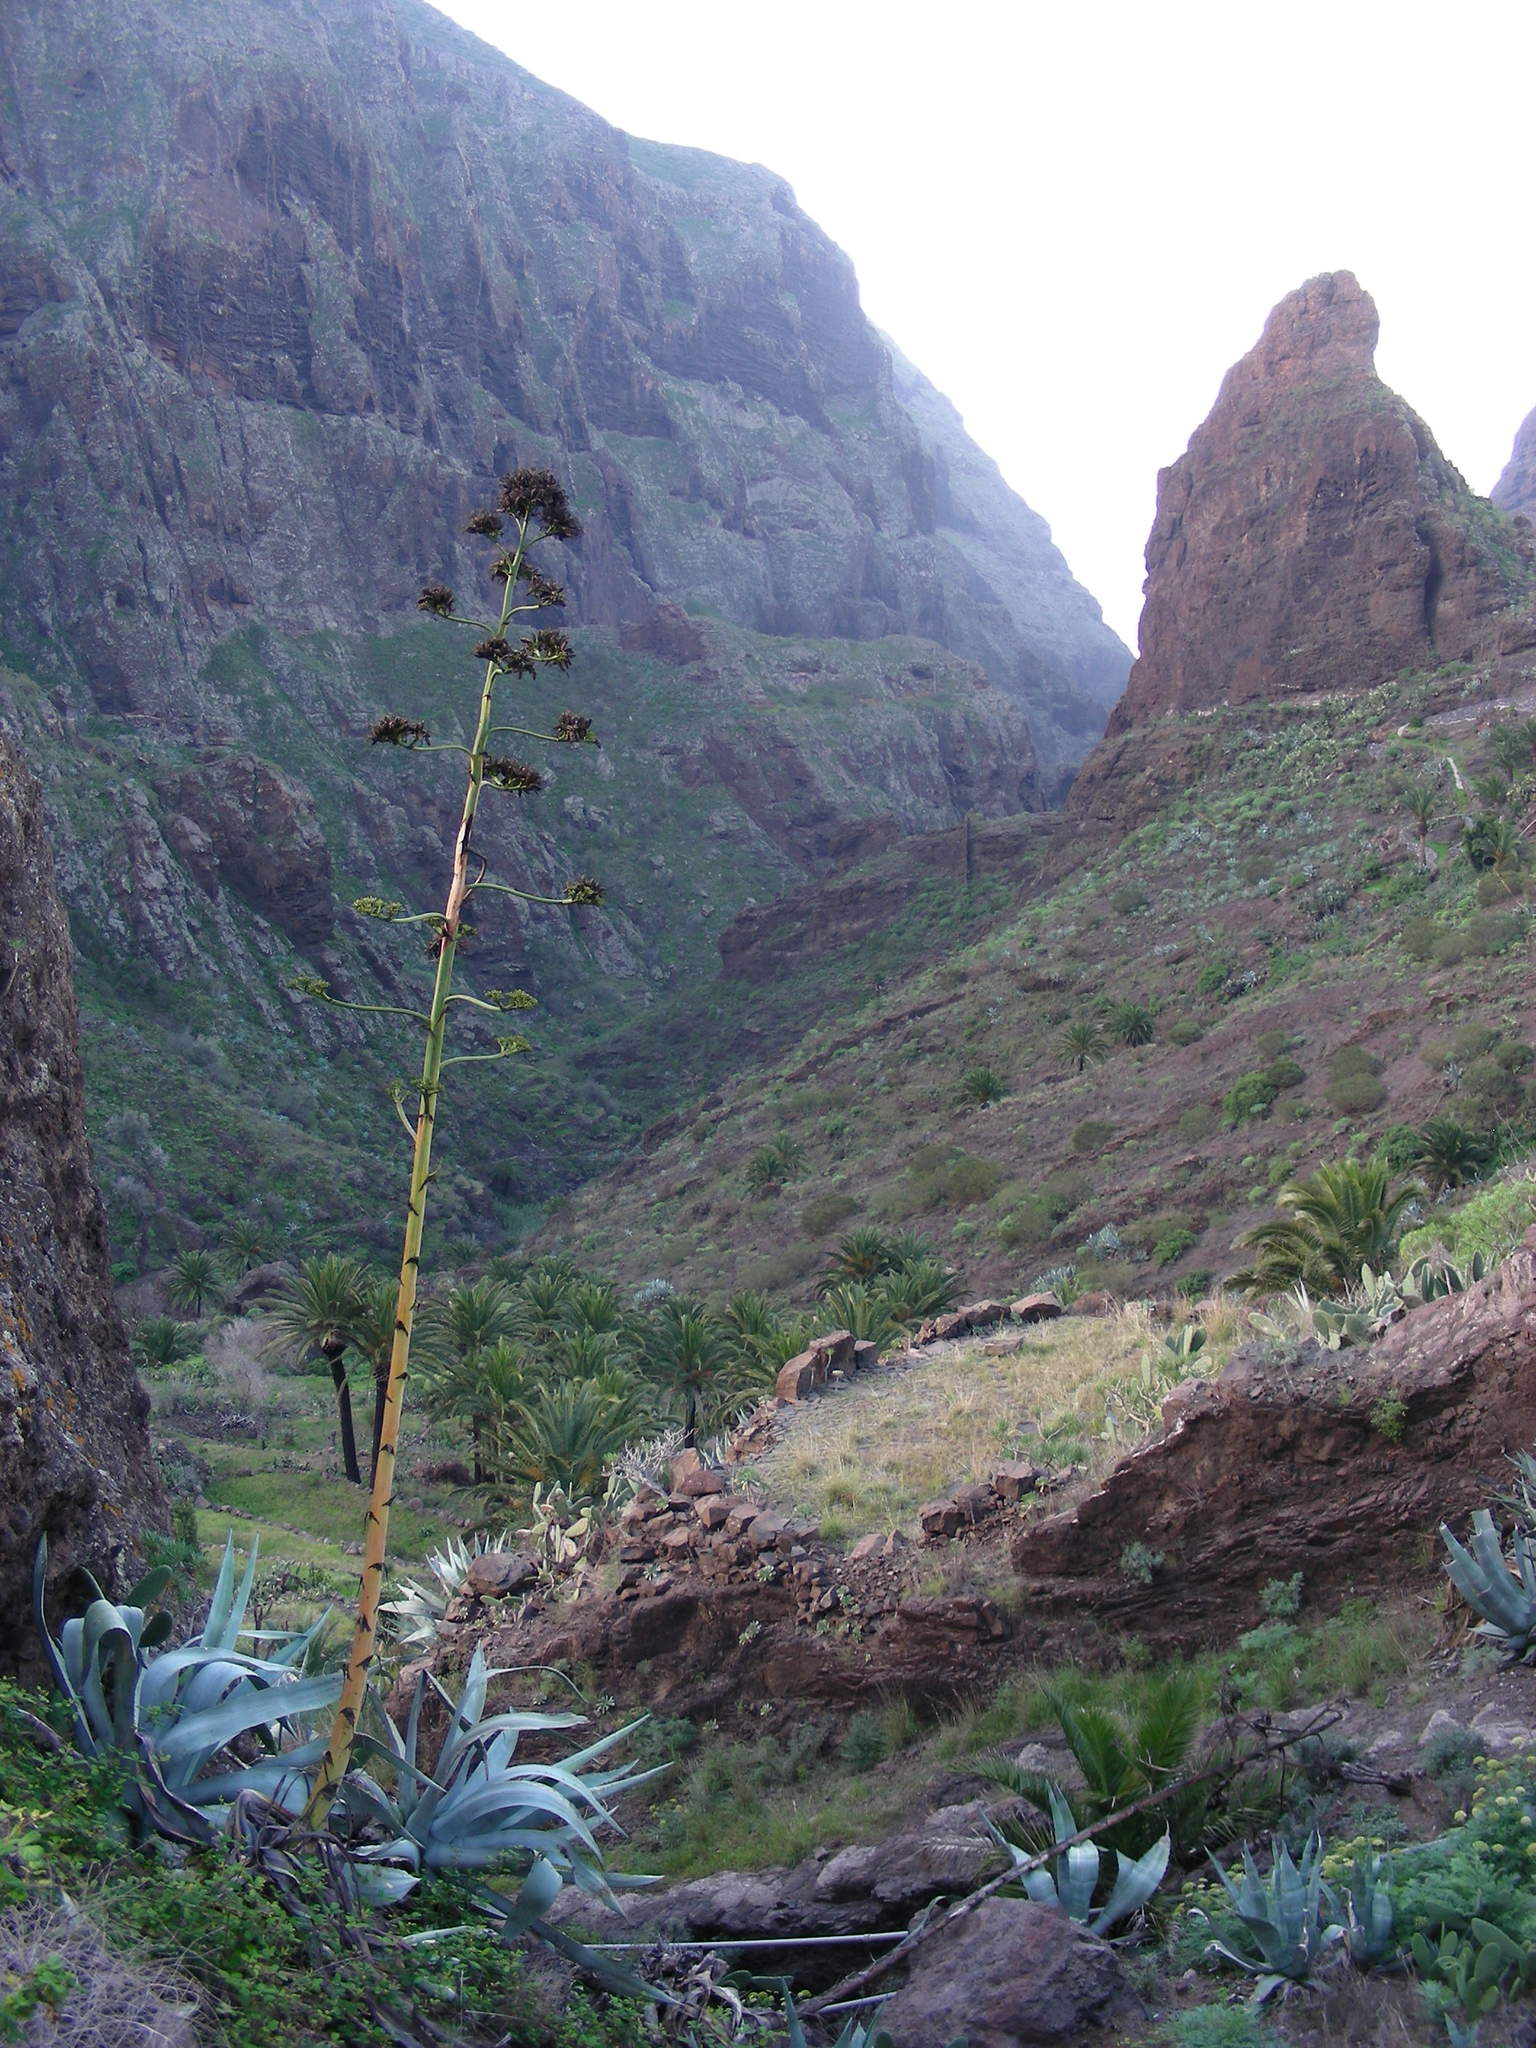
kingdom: Plantae
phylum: Tracheophyta
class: Liliopsida
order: Asparagales
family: Asparagaceae
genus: Agave
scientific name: Agave americana
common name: Centuryplant
